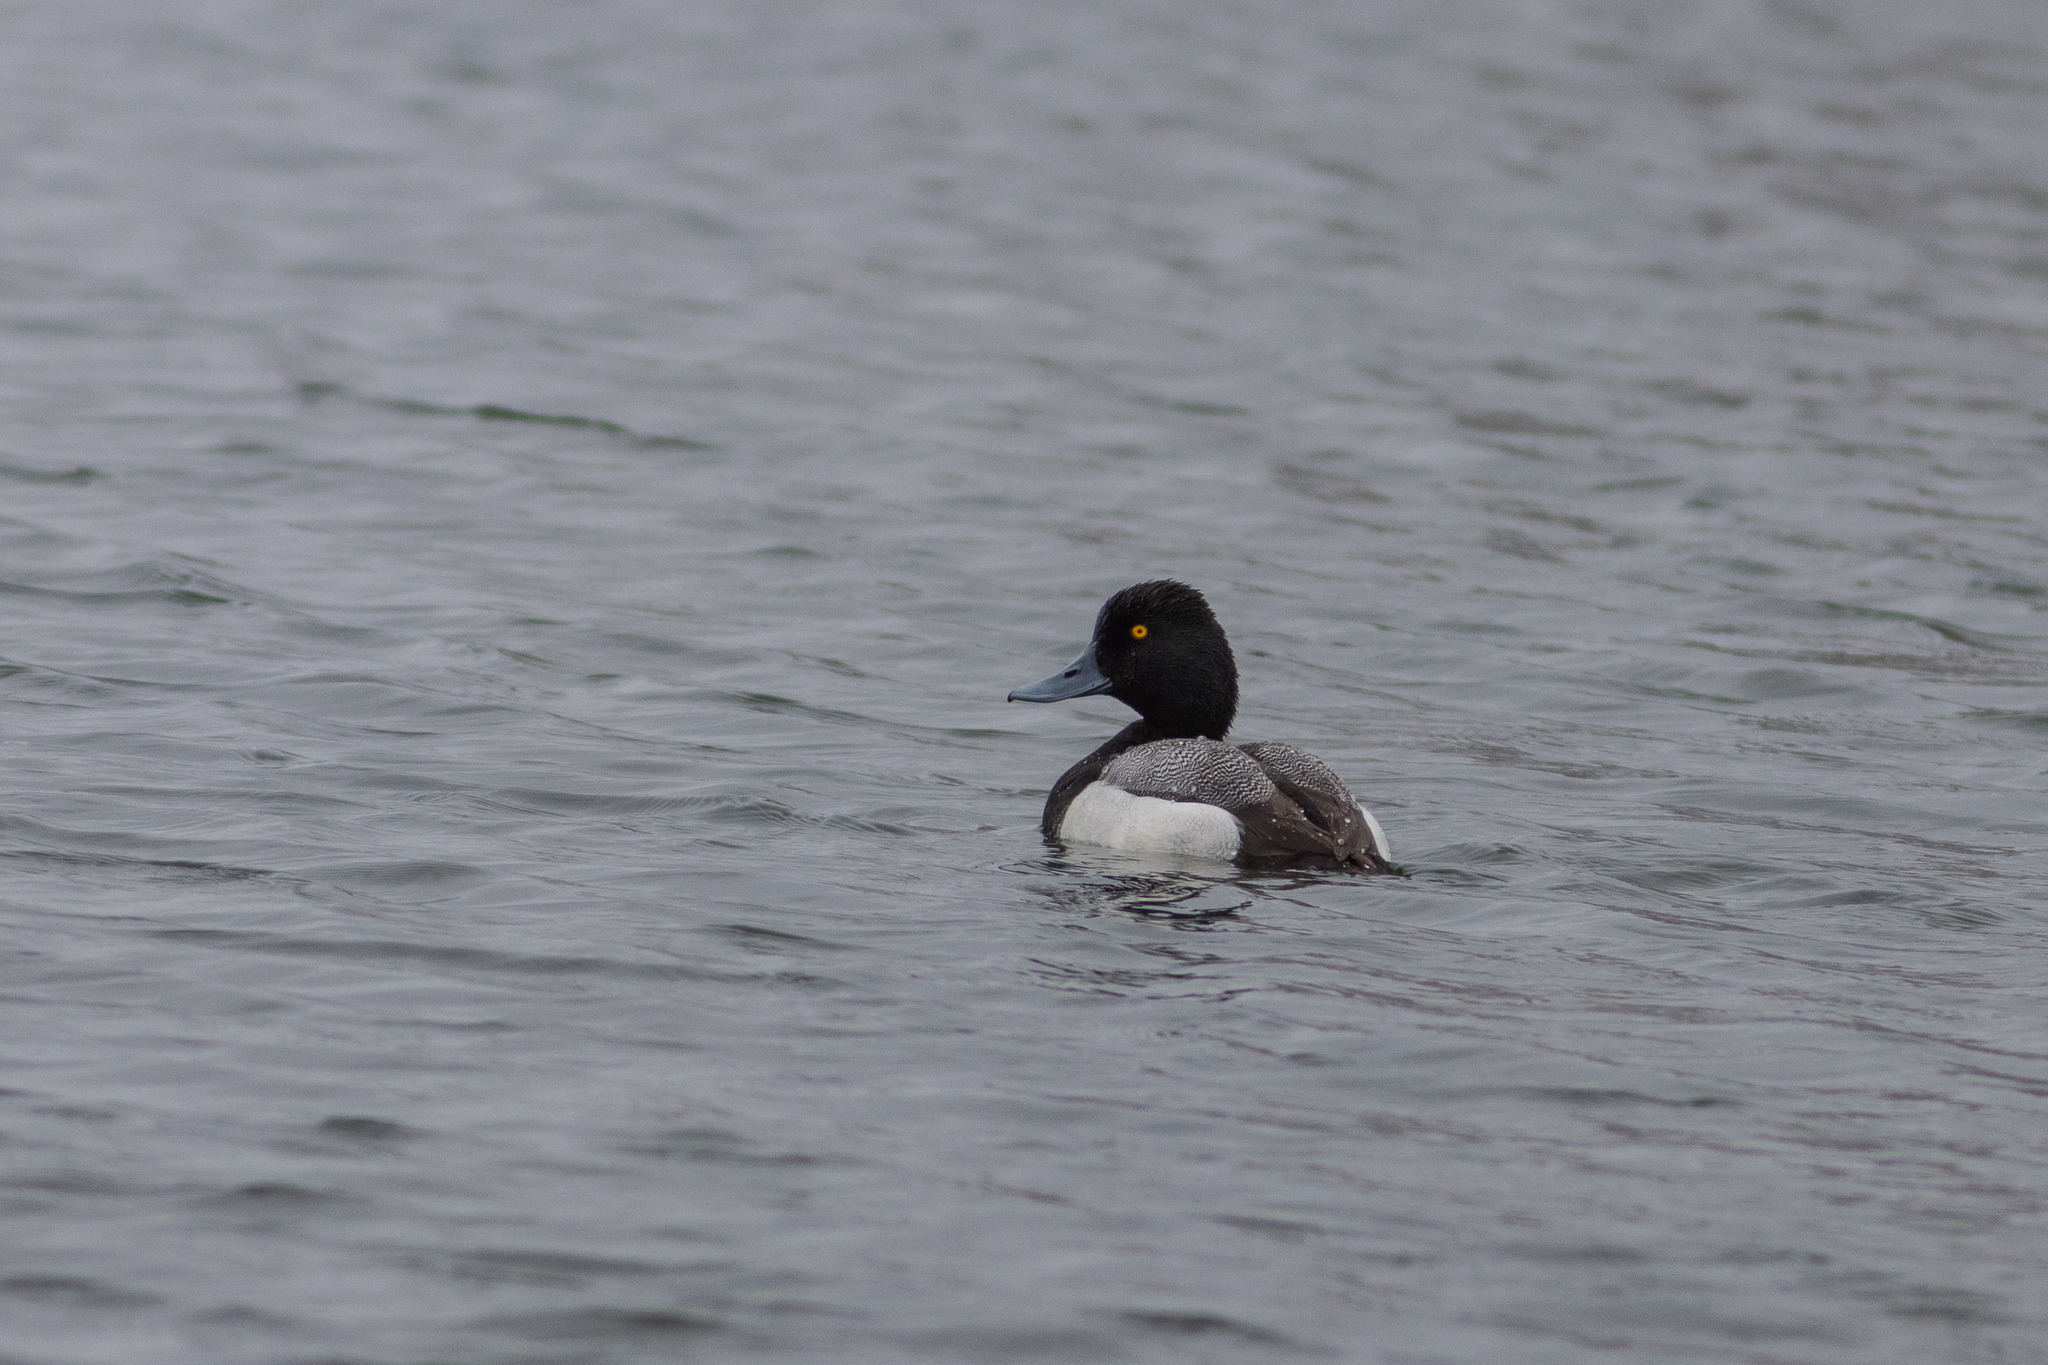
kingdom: Animalia
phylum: Chordata
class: Aves
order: Anseriformes
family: Anatidae
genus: Aythya
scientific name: Aythya affinis
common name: Lesser scaup
